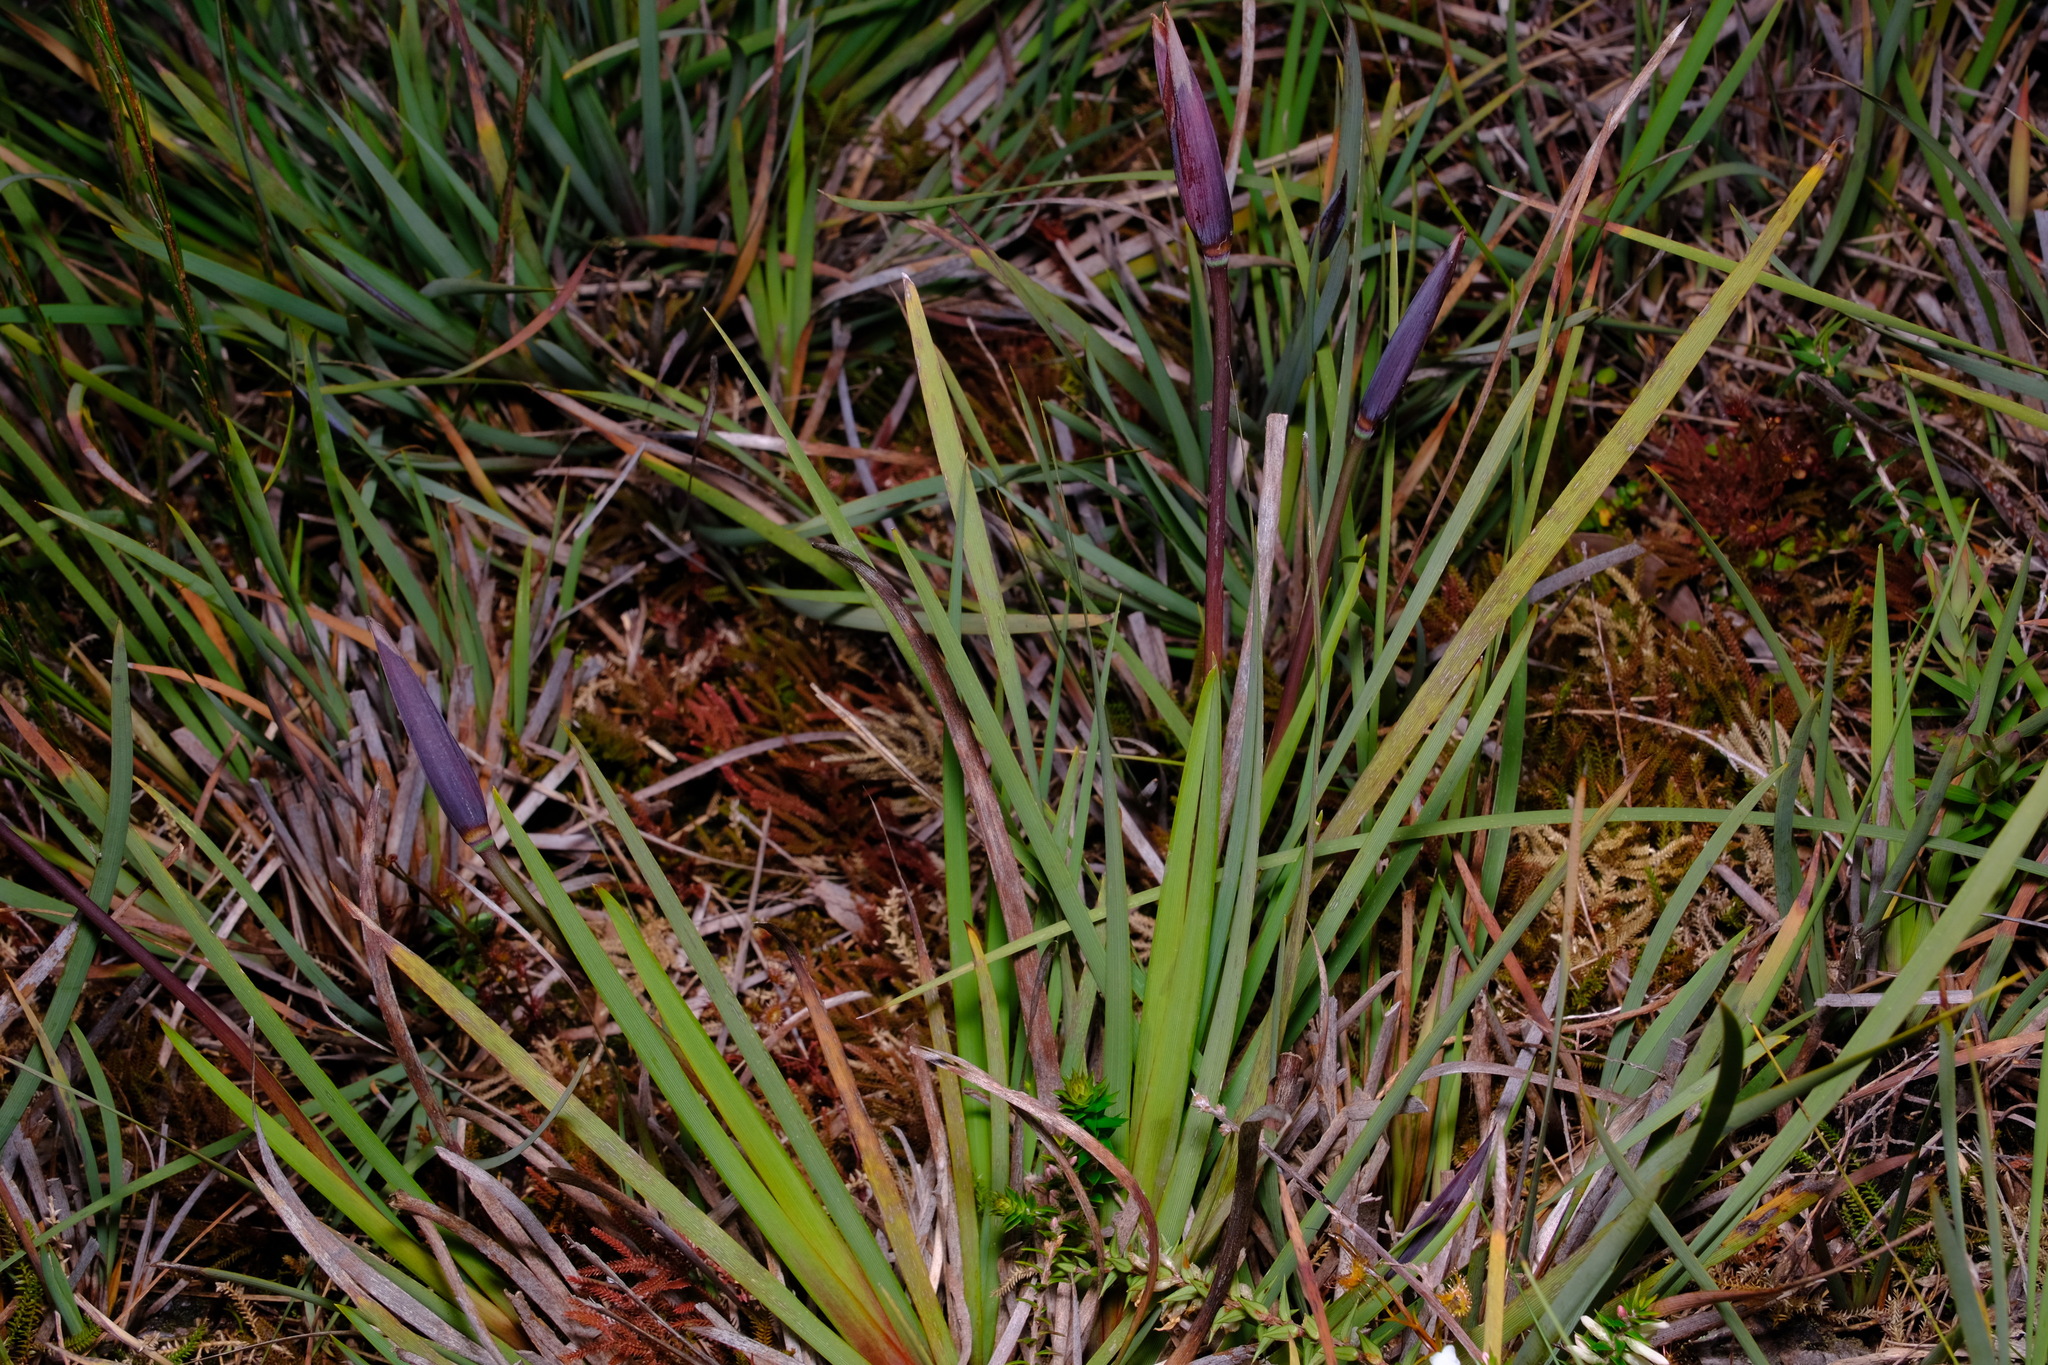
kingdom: Plantae
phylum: Tracheophyta
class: Liliopsida
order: Asparagales
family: Iridaceae
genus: Patersonia
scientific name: Patersonia occidentalis
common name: Long purple-flag
